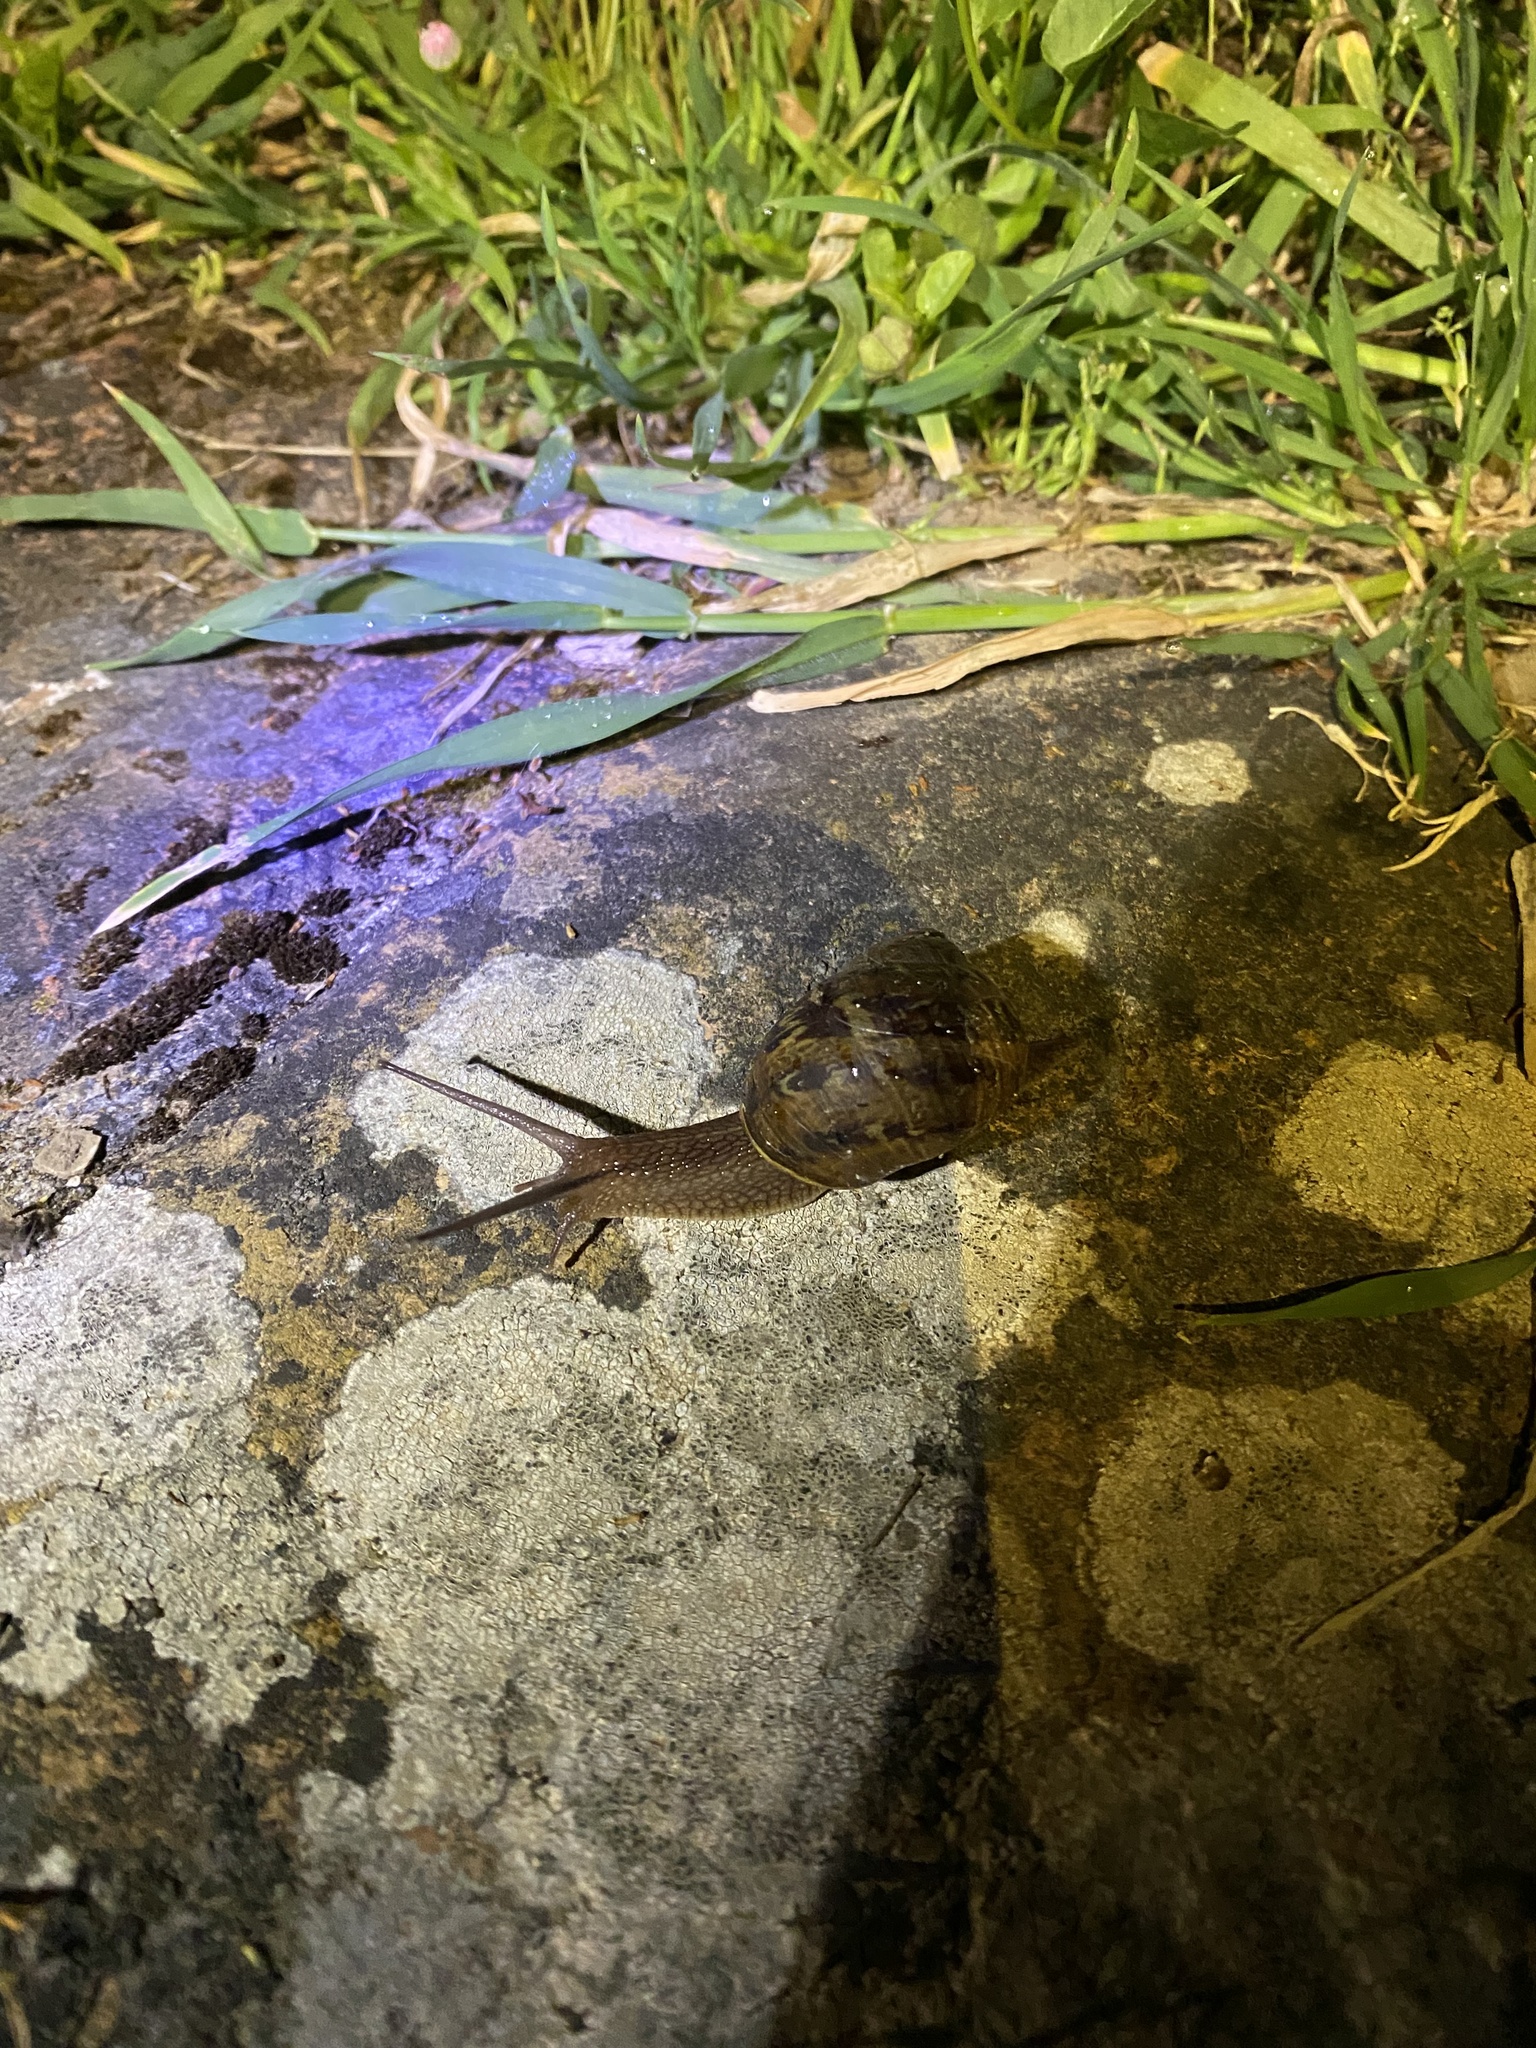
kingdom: Animalia
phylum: Mollusca
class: Gastropoda
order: Stylommatophora
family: Helicidae
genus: Cornu
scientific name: Cornu aspersum
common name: Brown garden snail
